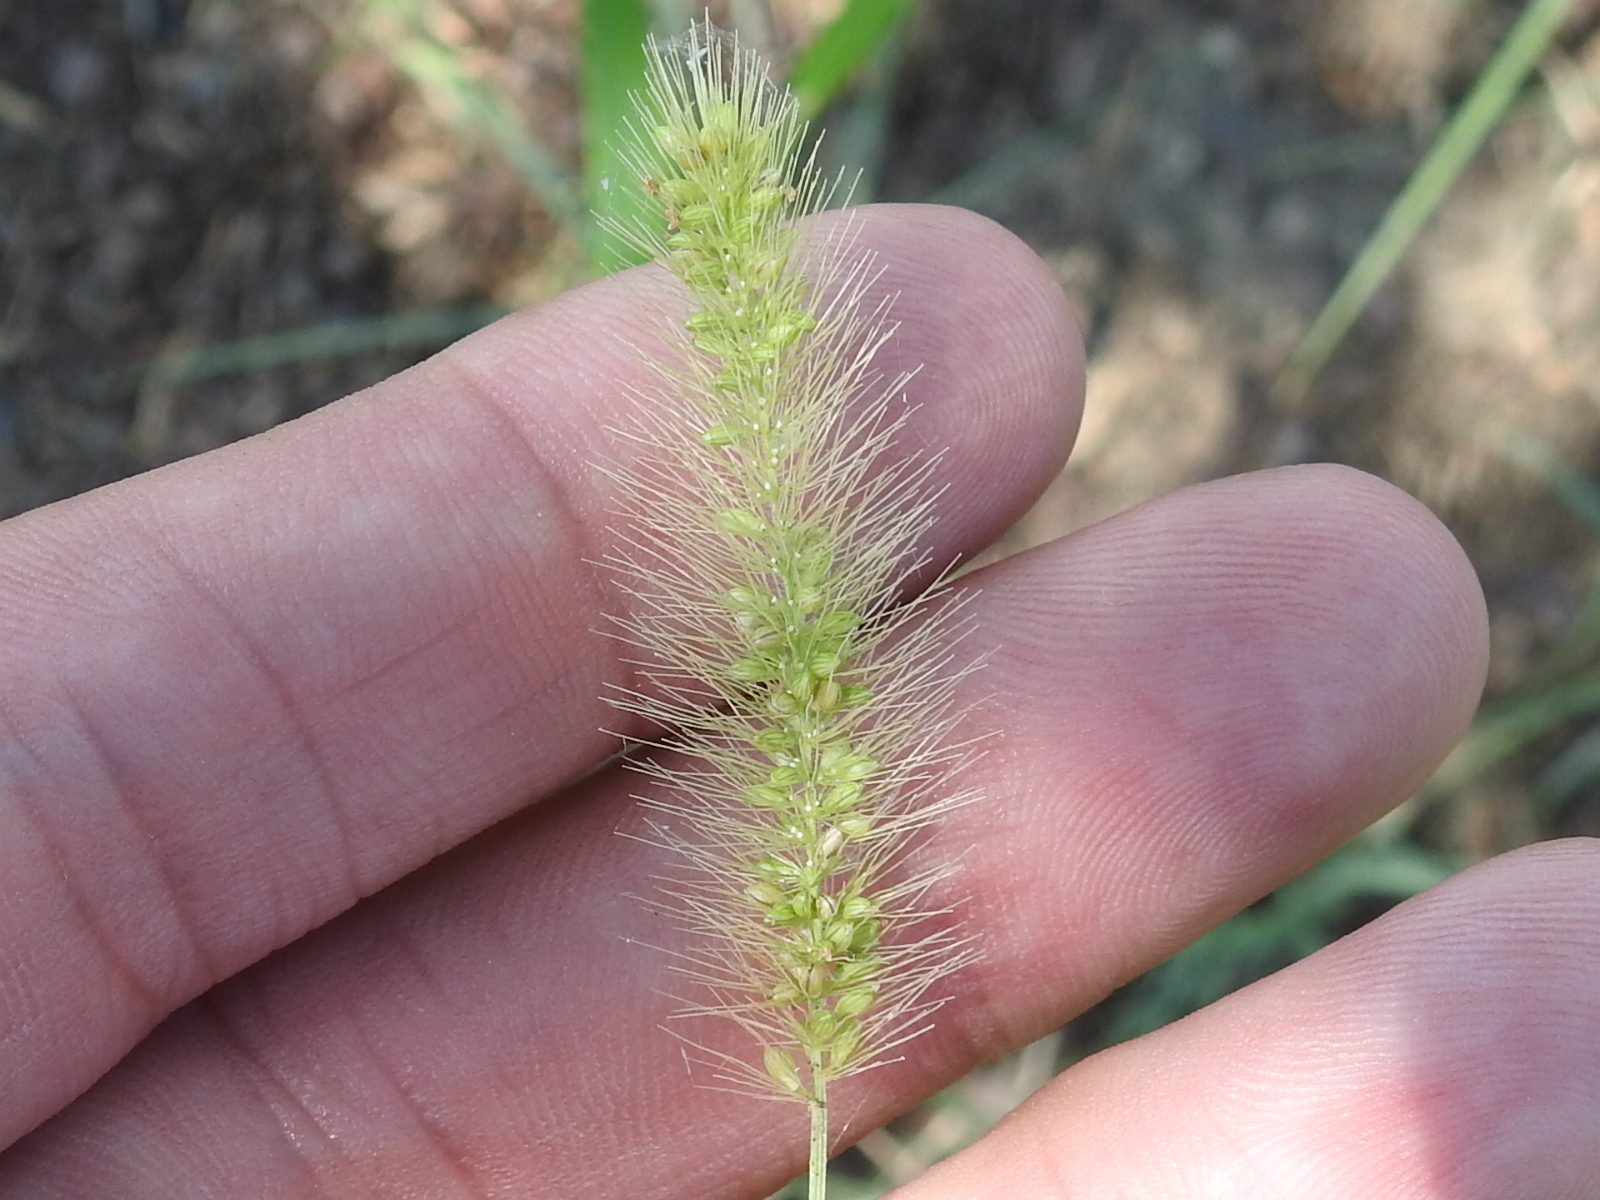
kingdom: Plantae
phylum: Tracheophyta
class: Liliopsida
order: Poales
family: Poaceae
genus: Setaria
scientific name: Setaria viridis
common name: Green bristlegrass
